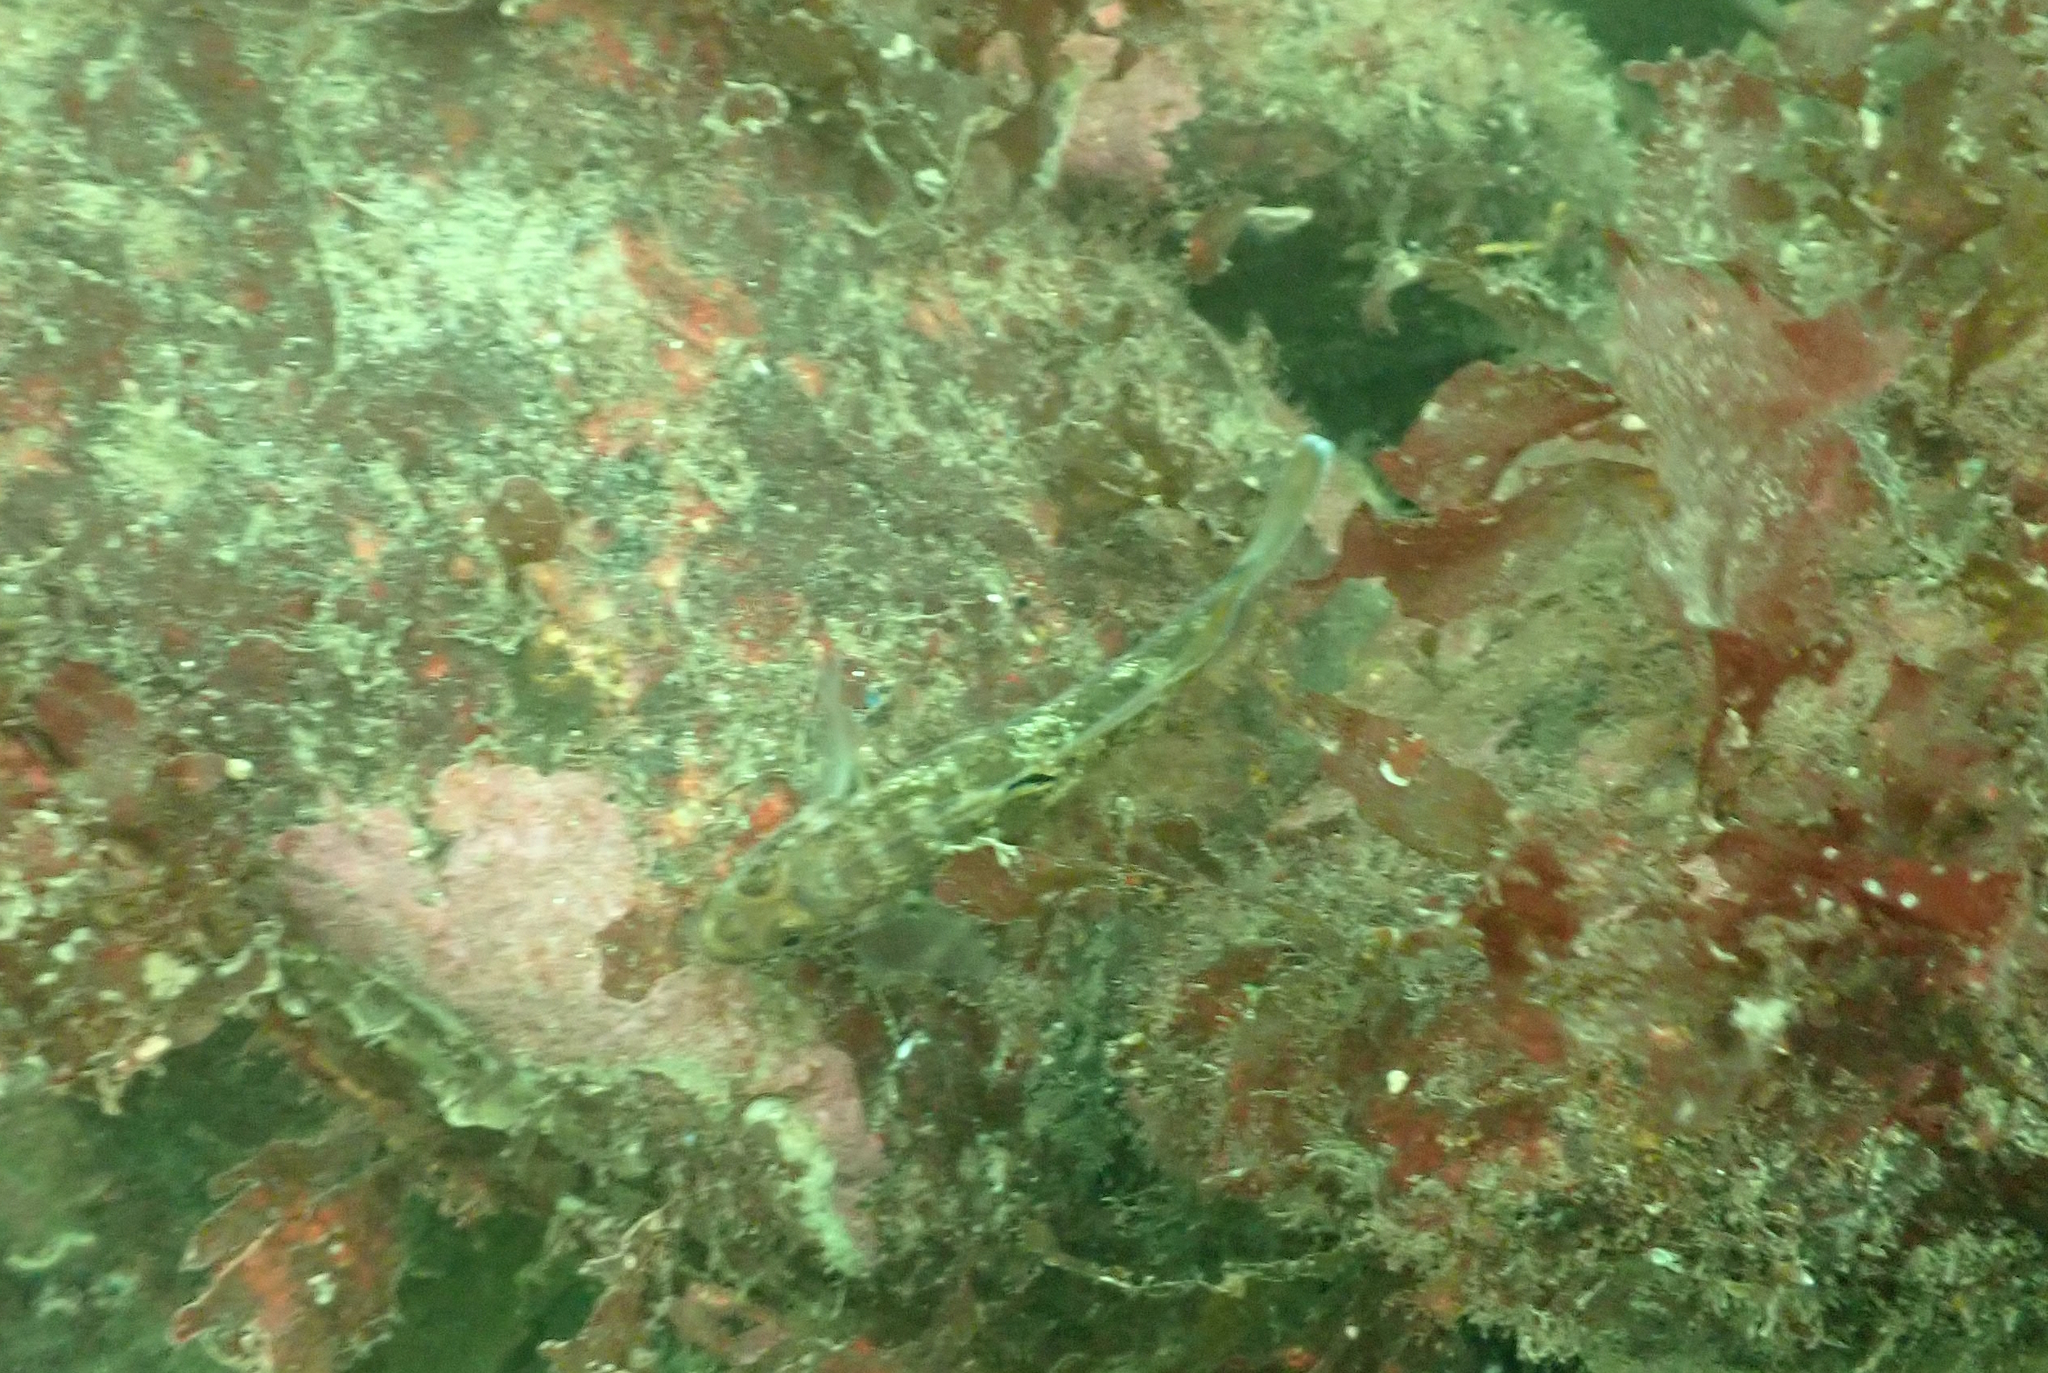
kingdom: Animalia
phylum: Chordata
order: Perciformes
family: Gobiidae
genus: Rhinogobiops
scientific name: Rhinogobiops nicholsii
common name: Blackeye goby
